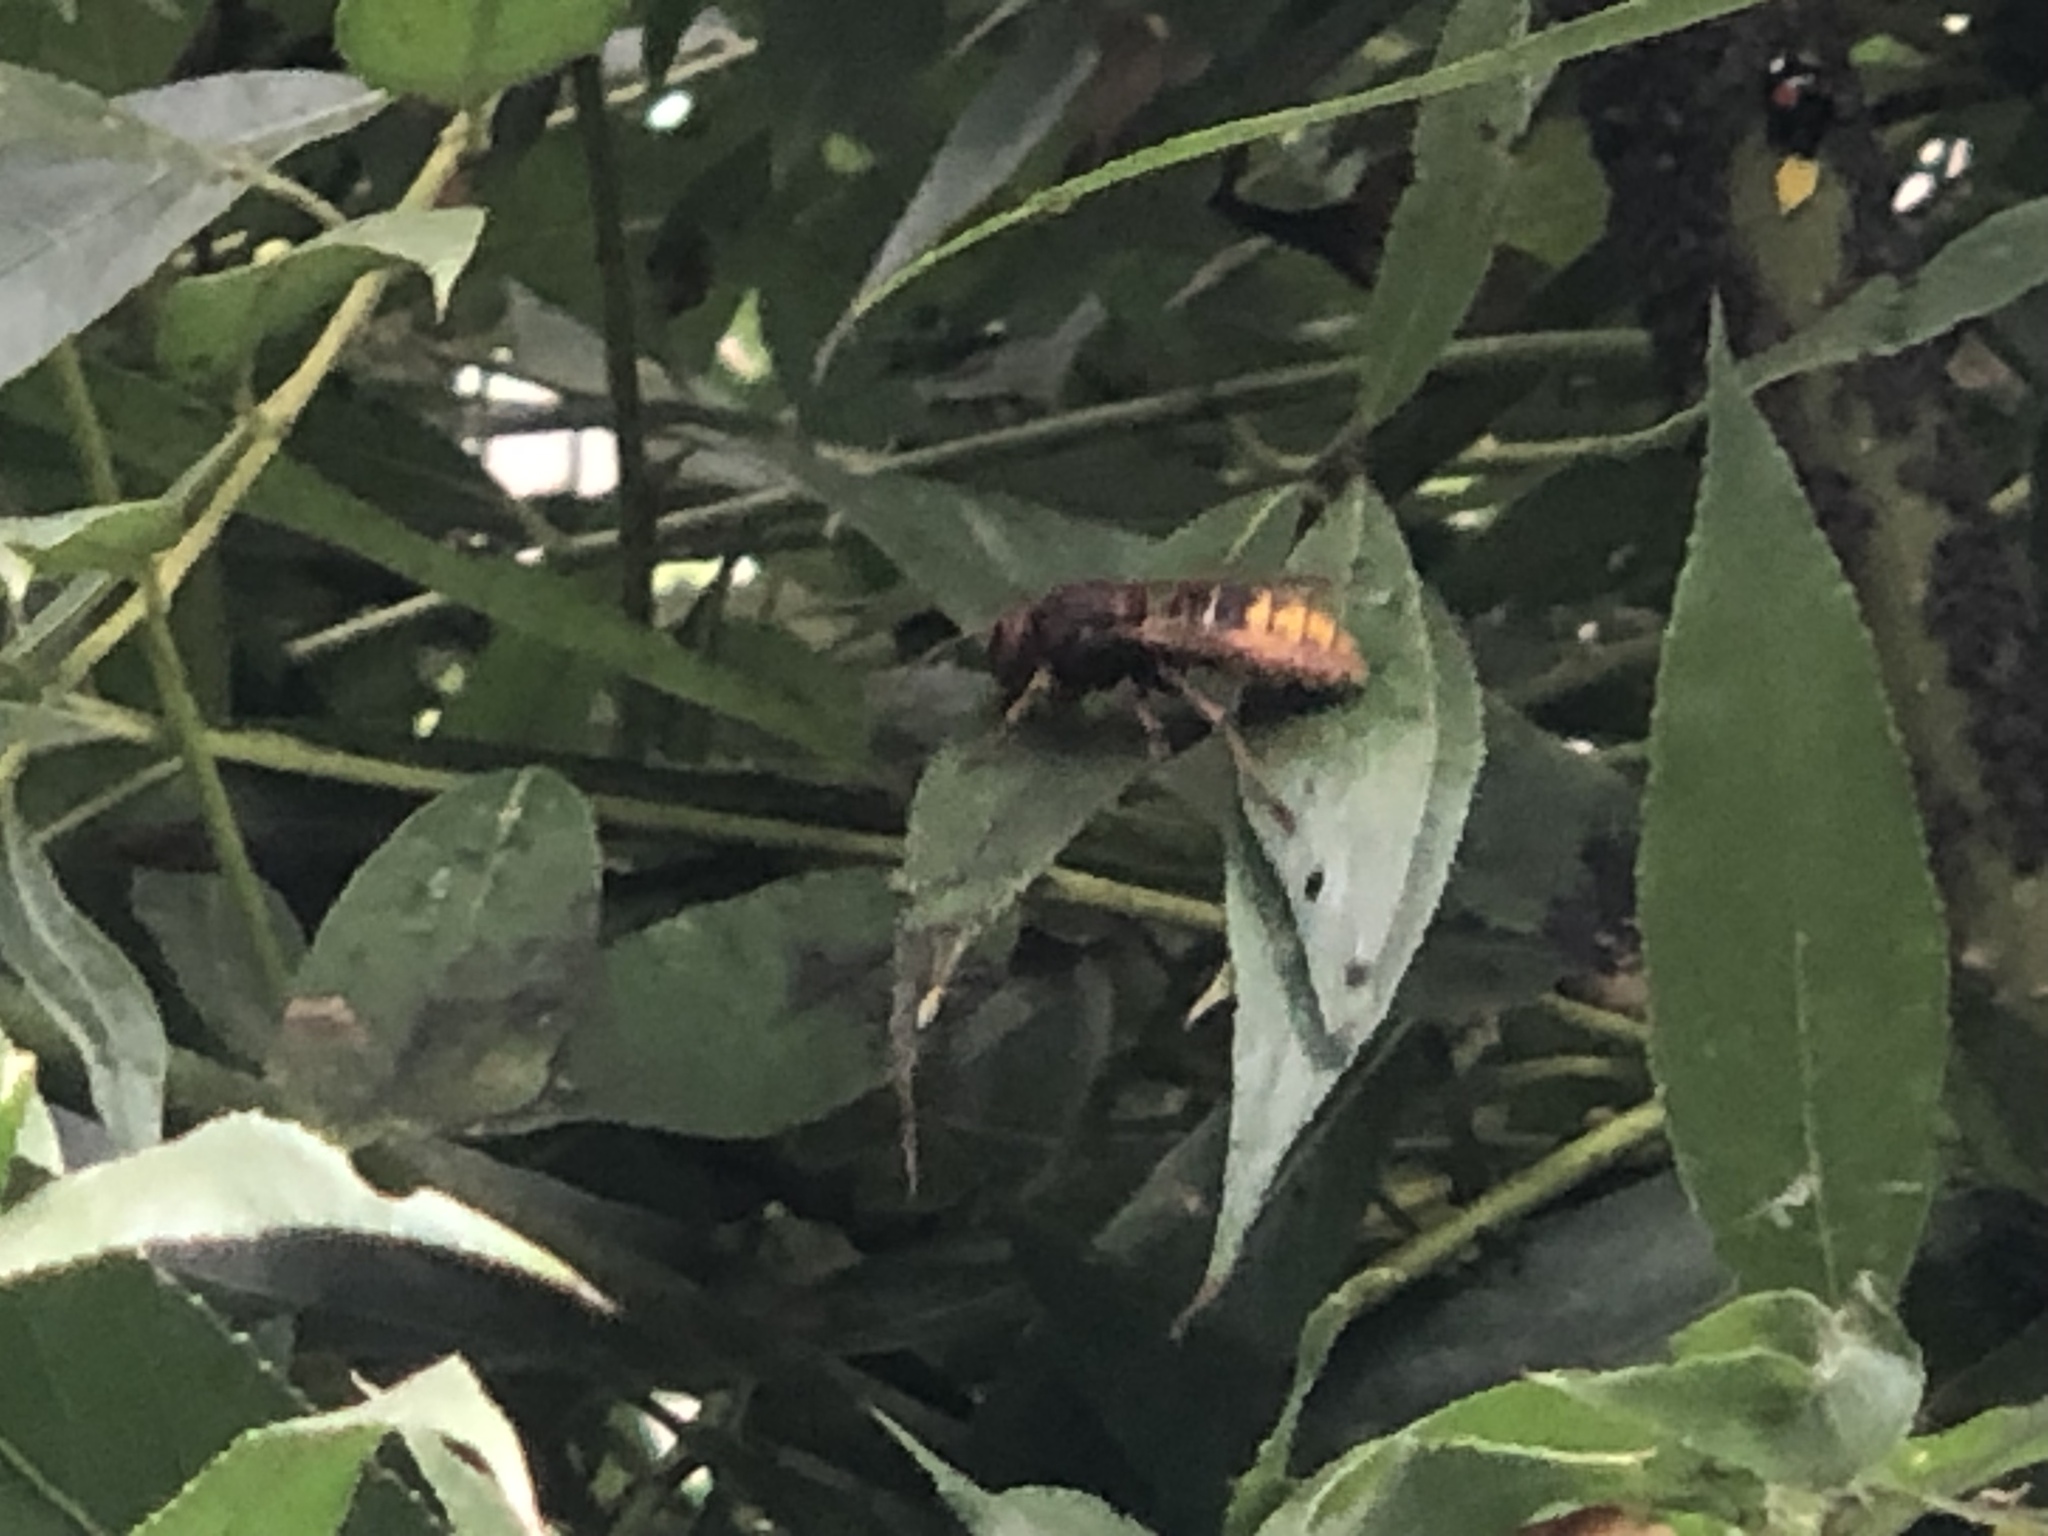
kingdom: Animalia
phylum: Arthropoda
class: Insecta
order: Hymenoptera
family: Vespidae
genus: Vespa
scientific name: Vespa crabro
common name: Hornet
